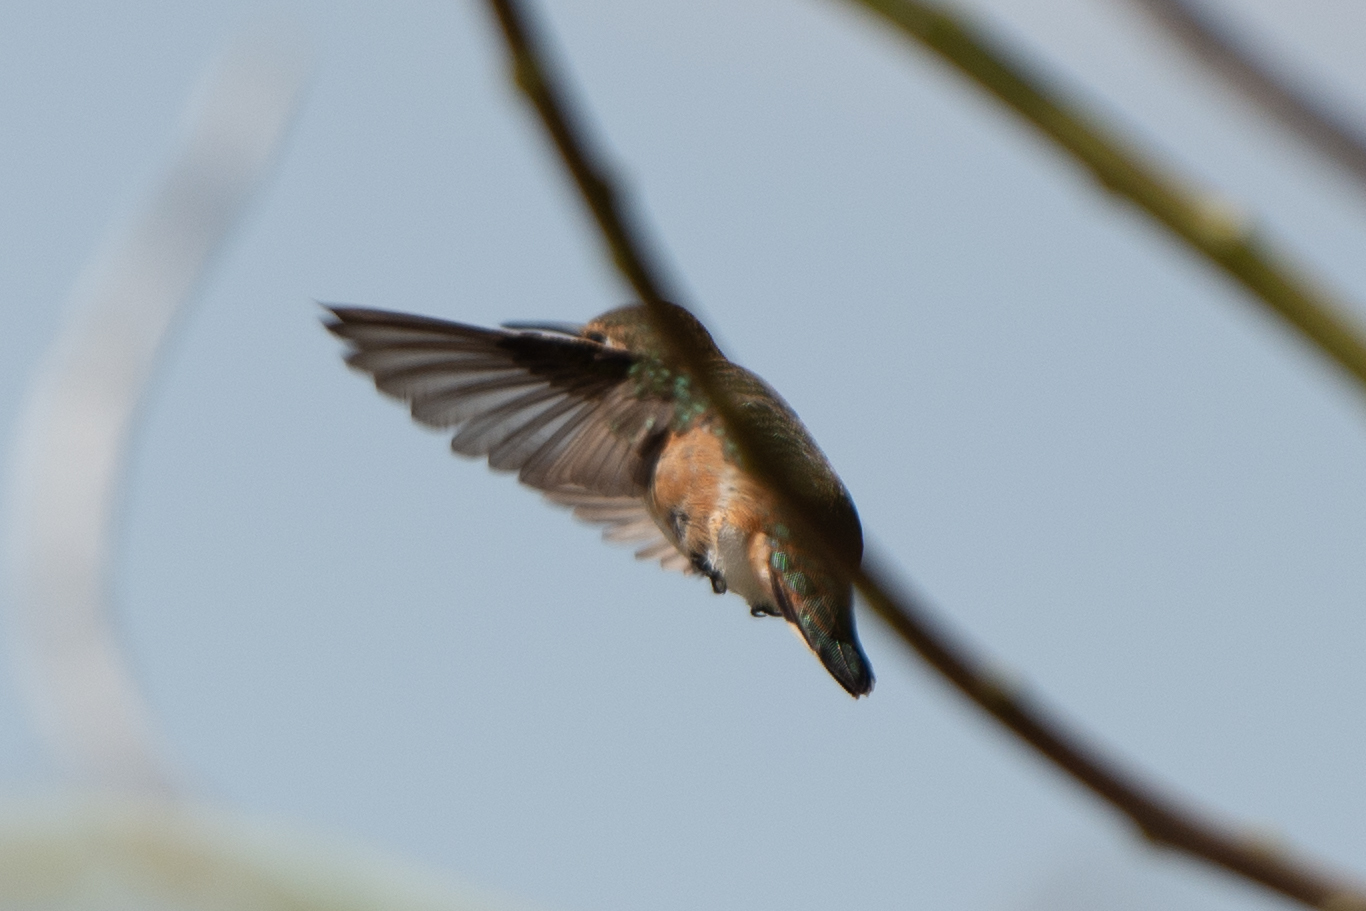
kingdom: Animalia
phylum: Chordata
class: Aves
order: Apodiformes
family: Trochilidae
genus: Selasphorus
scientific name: Selasphorus
